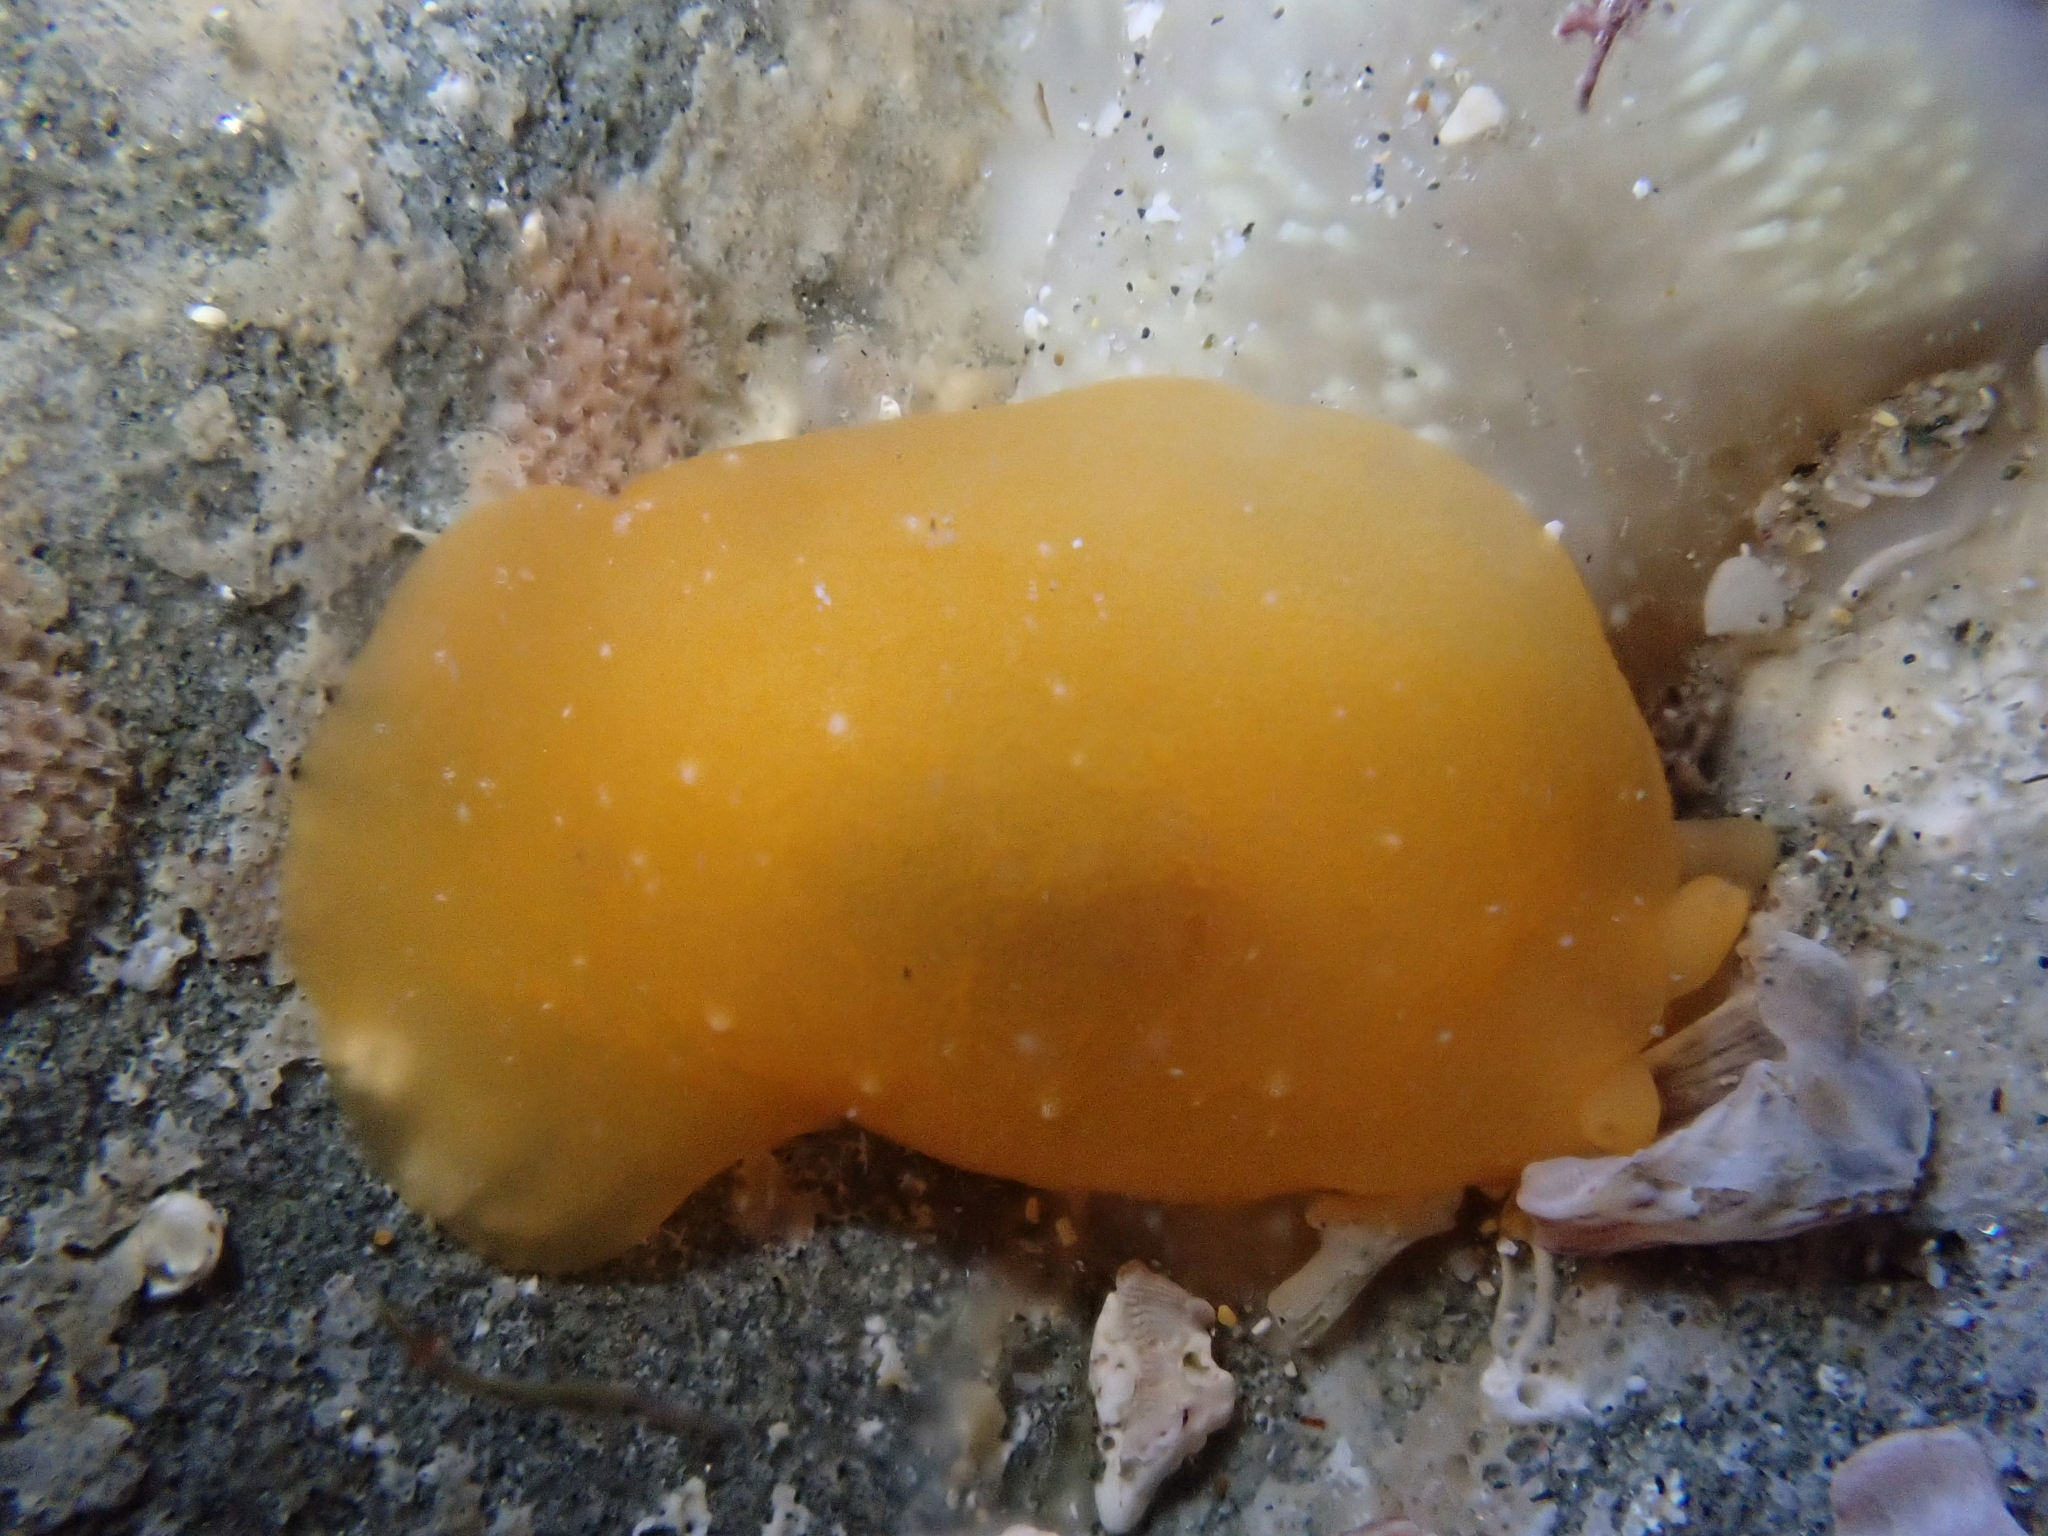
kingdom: Animalia
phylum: Mollusca
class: Gastropoda
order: Pleurobranchida
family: Pleurobranchidae
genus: Berthellina
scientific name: Berthellina citrina
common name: Lemon pleurobranch
